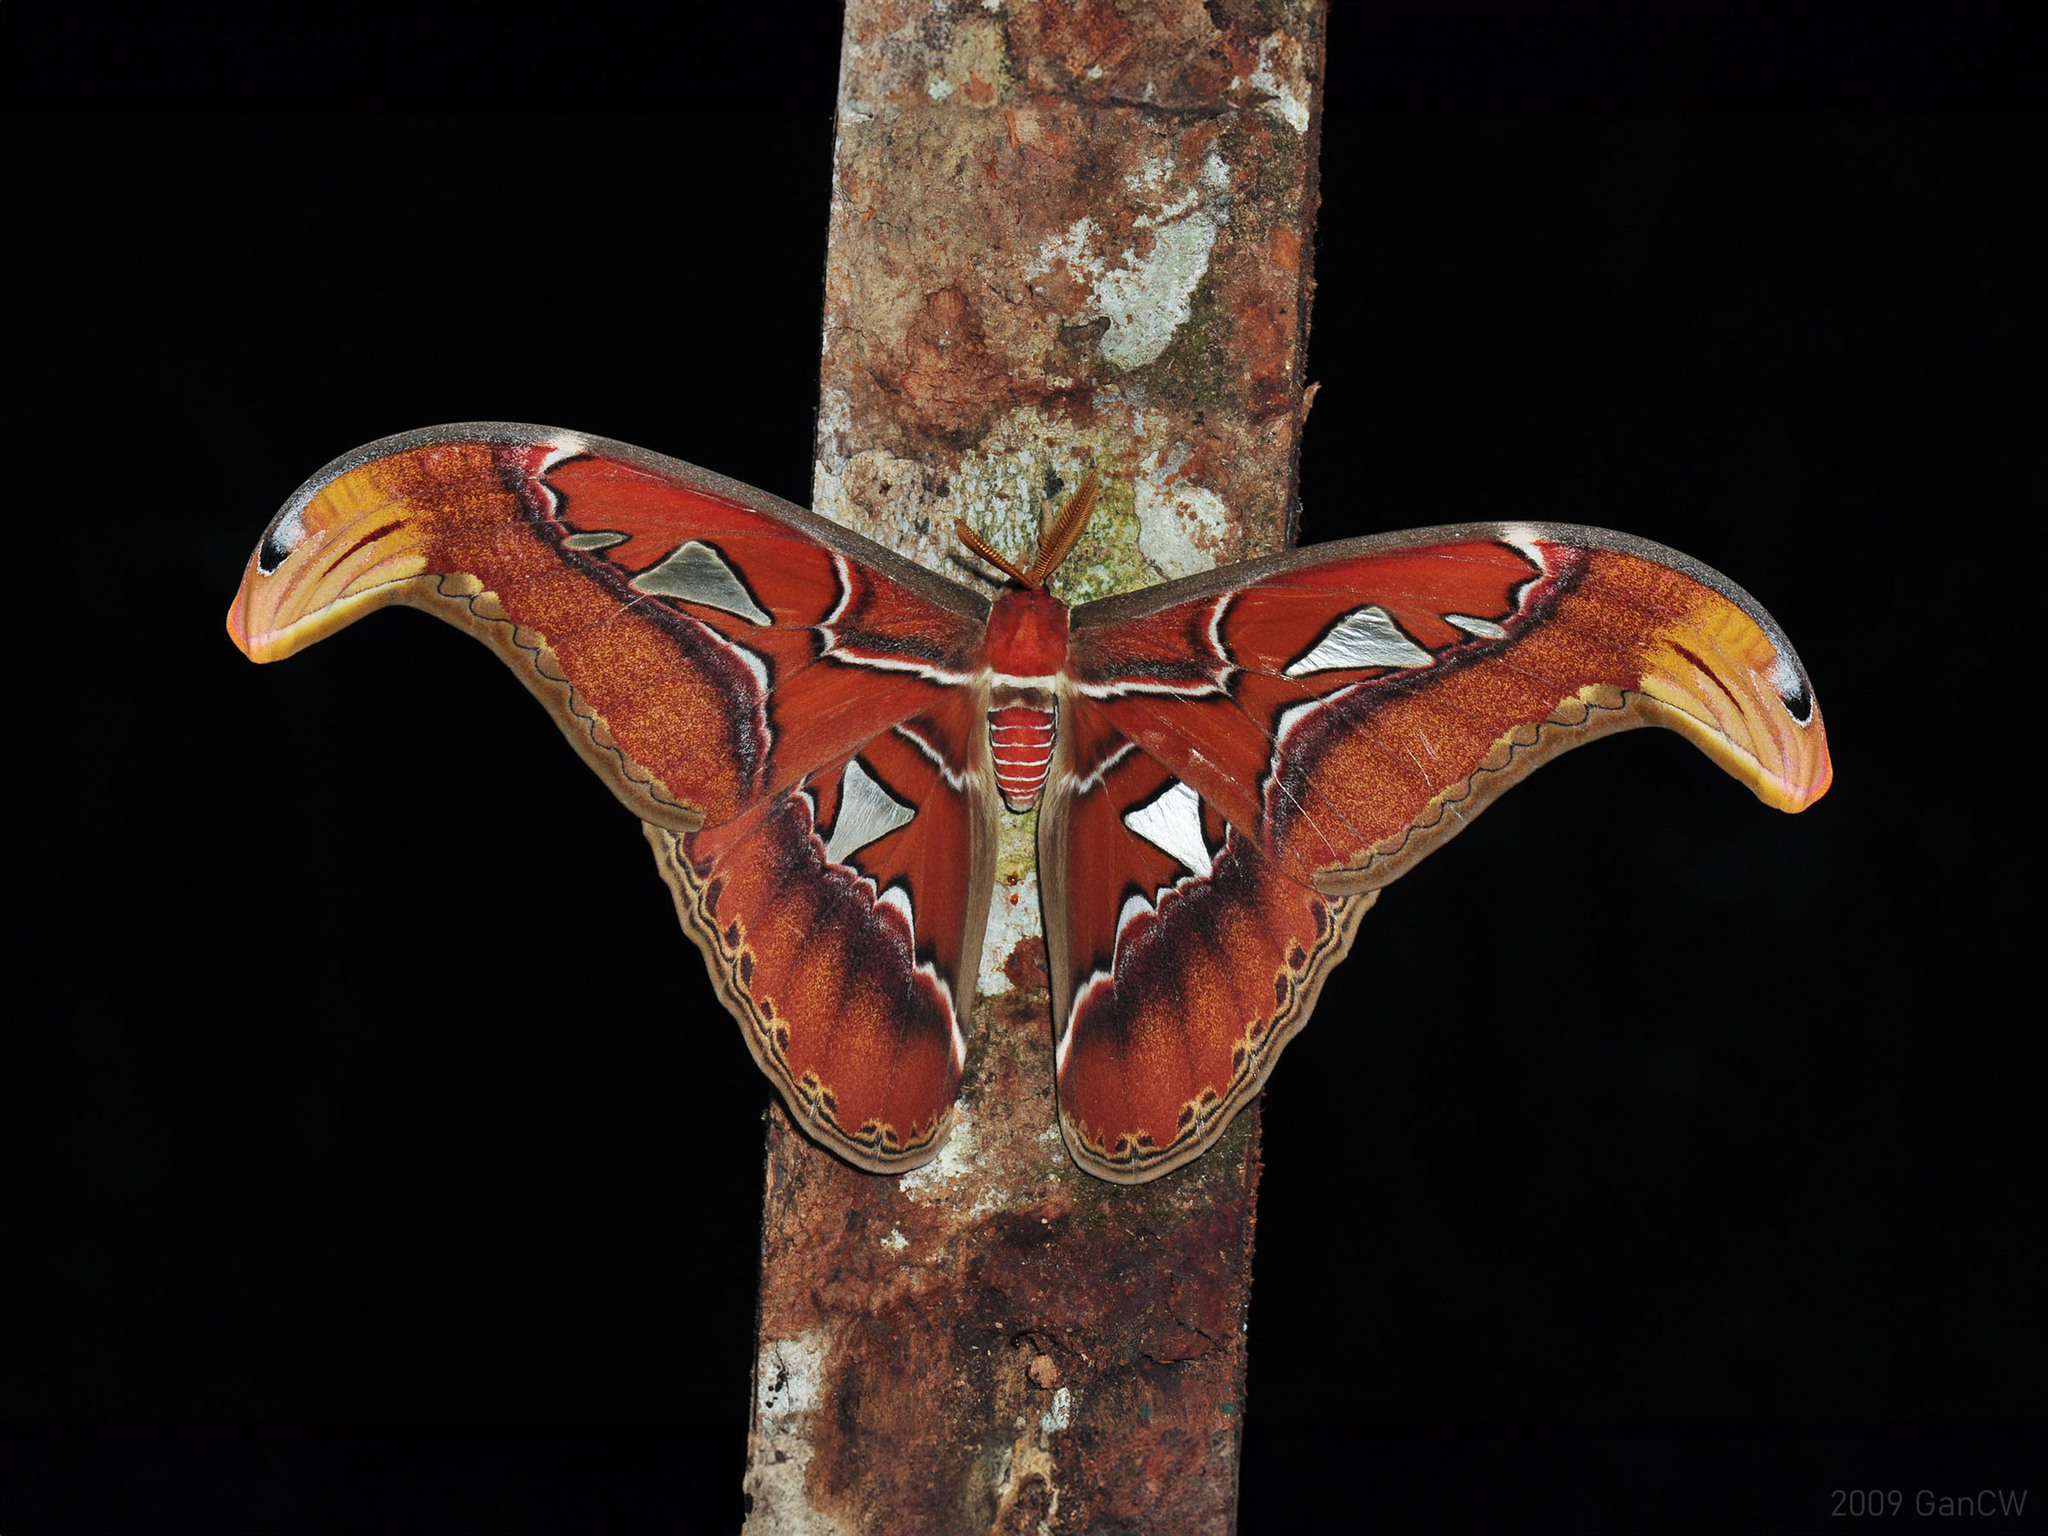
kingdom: Animalia
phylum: Arthropoda
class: Insecta
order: Lepidoptera
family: Saturniidae
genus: Attacus
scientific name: Attacus atlas
